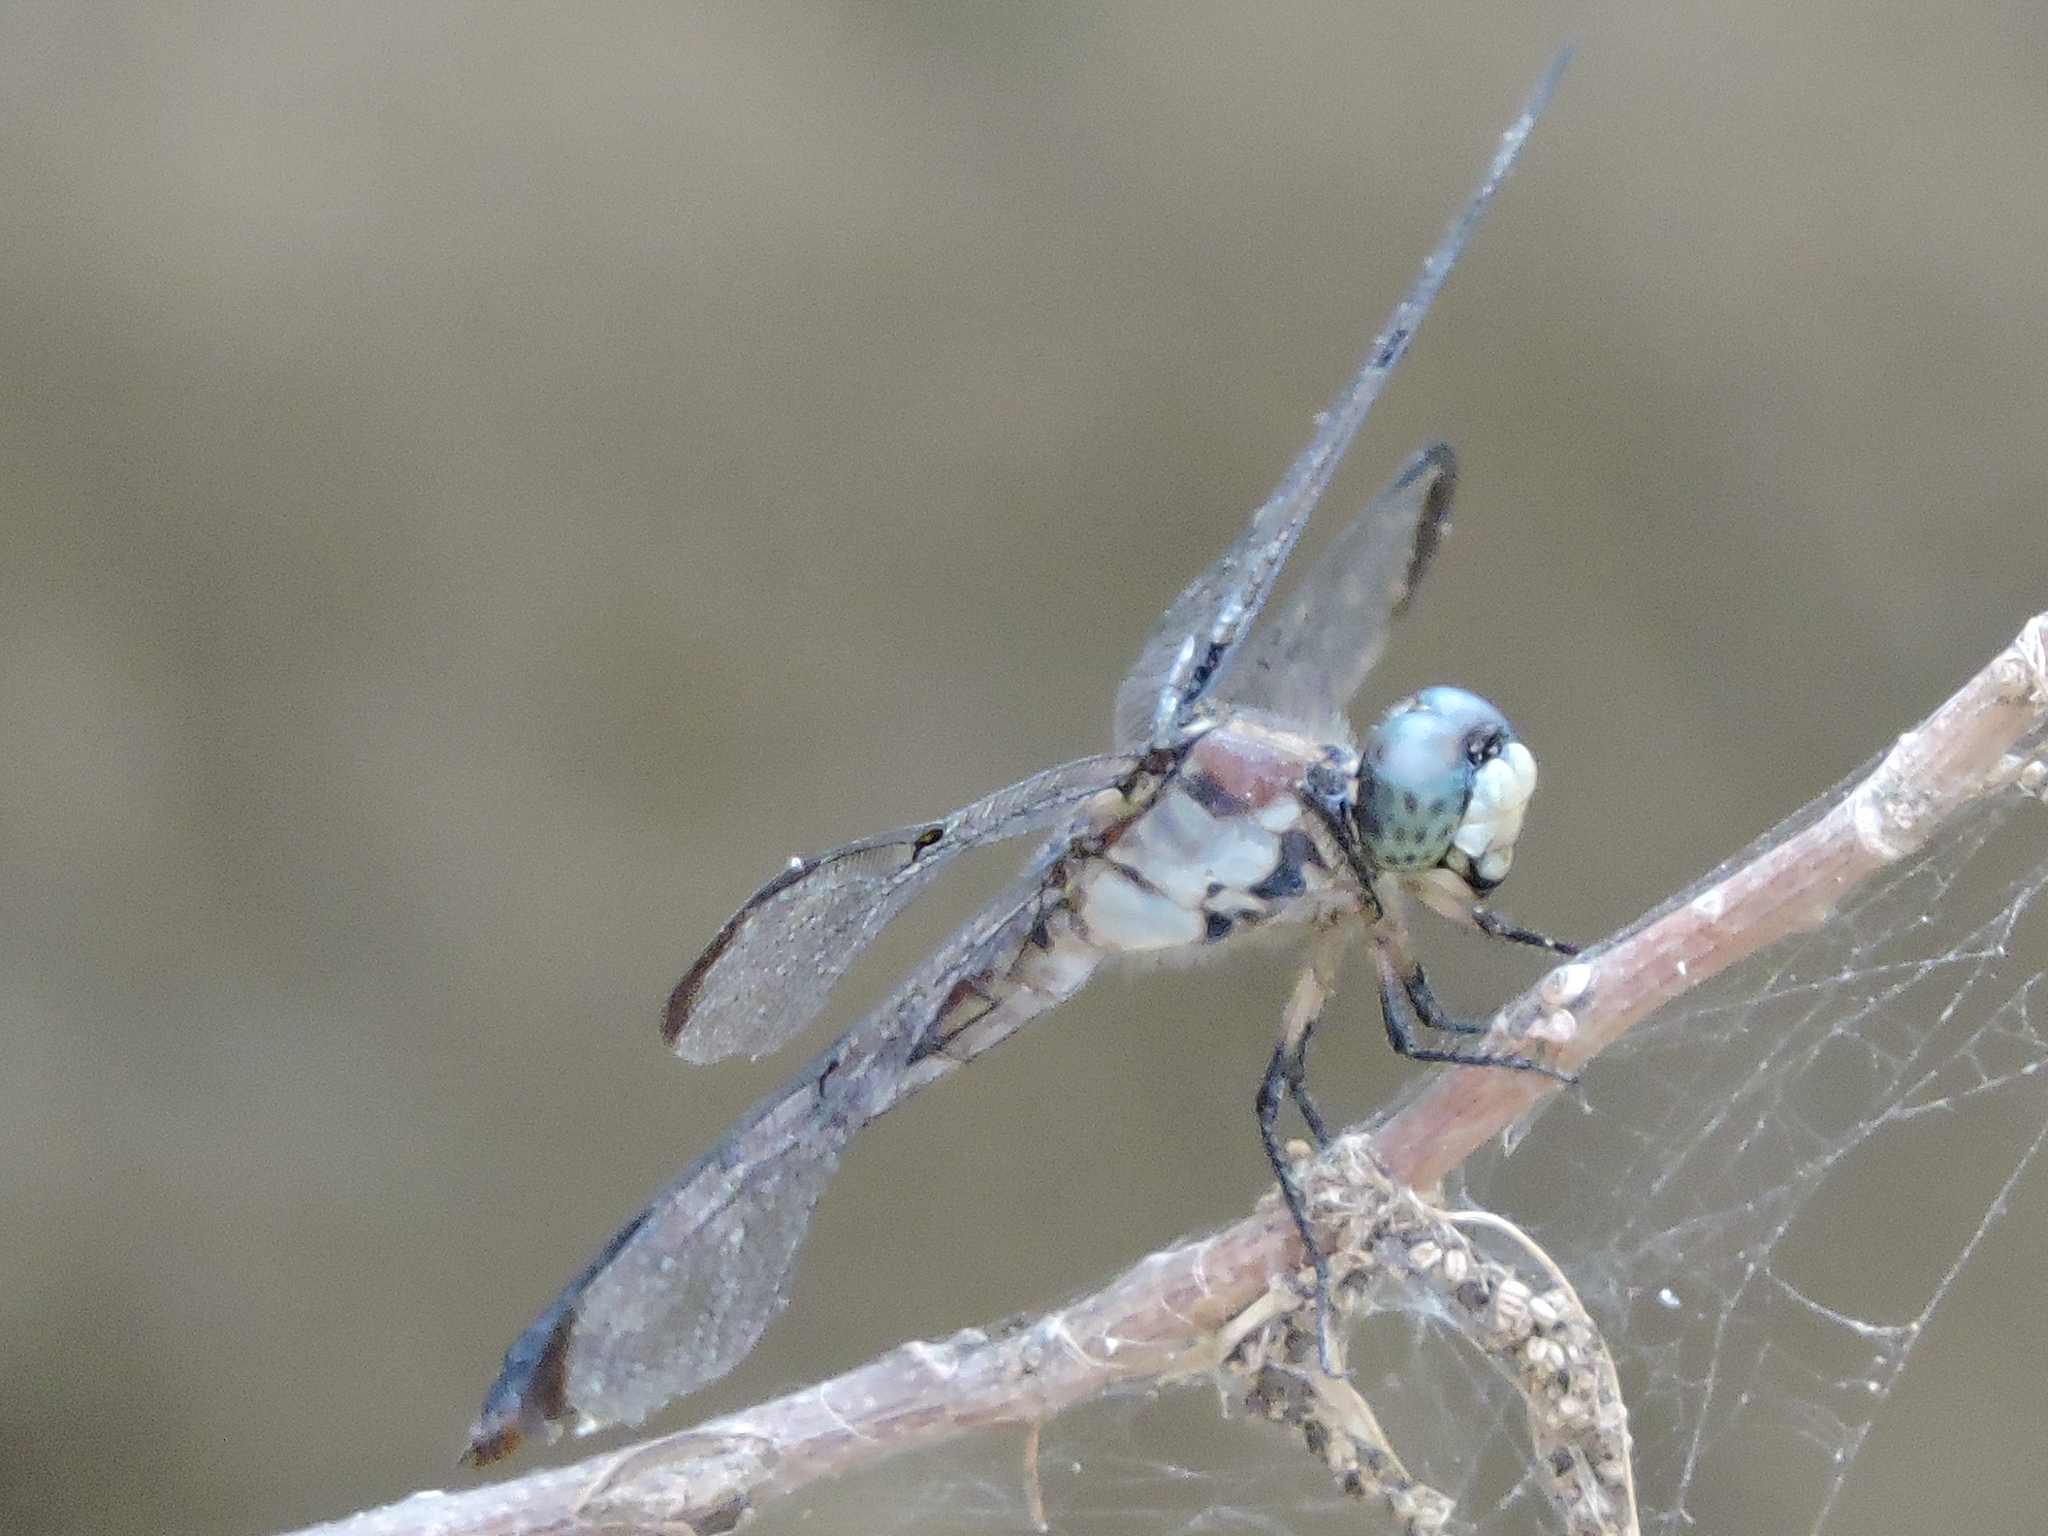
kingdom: Animalia
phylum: Arthropoda
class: Insecta
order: Odonata
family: Libellulidae
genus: Libellula
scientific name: Libellula vibrans
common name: Great blue skimmer
